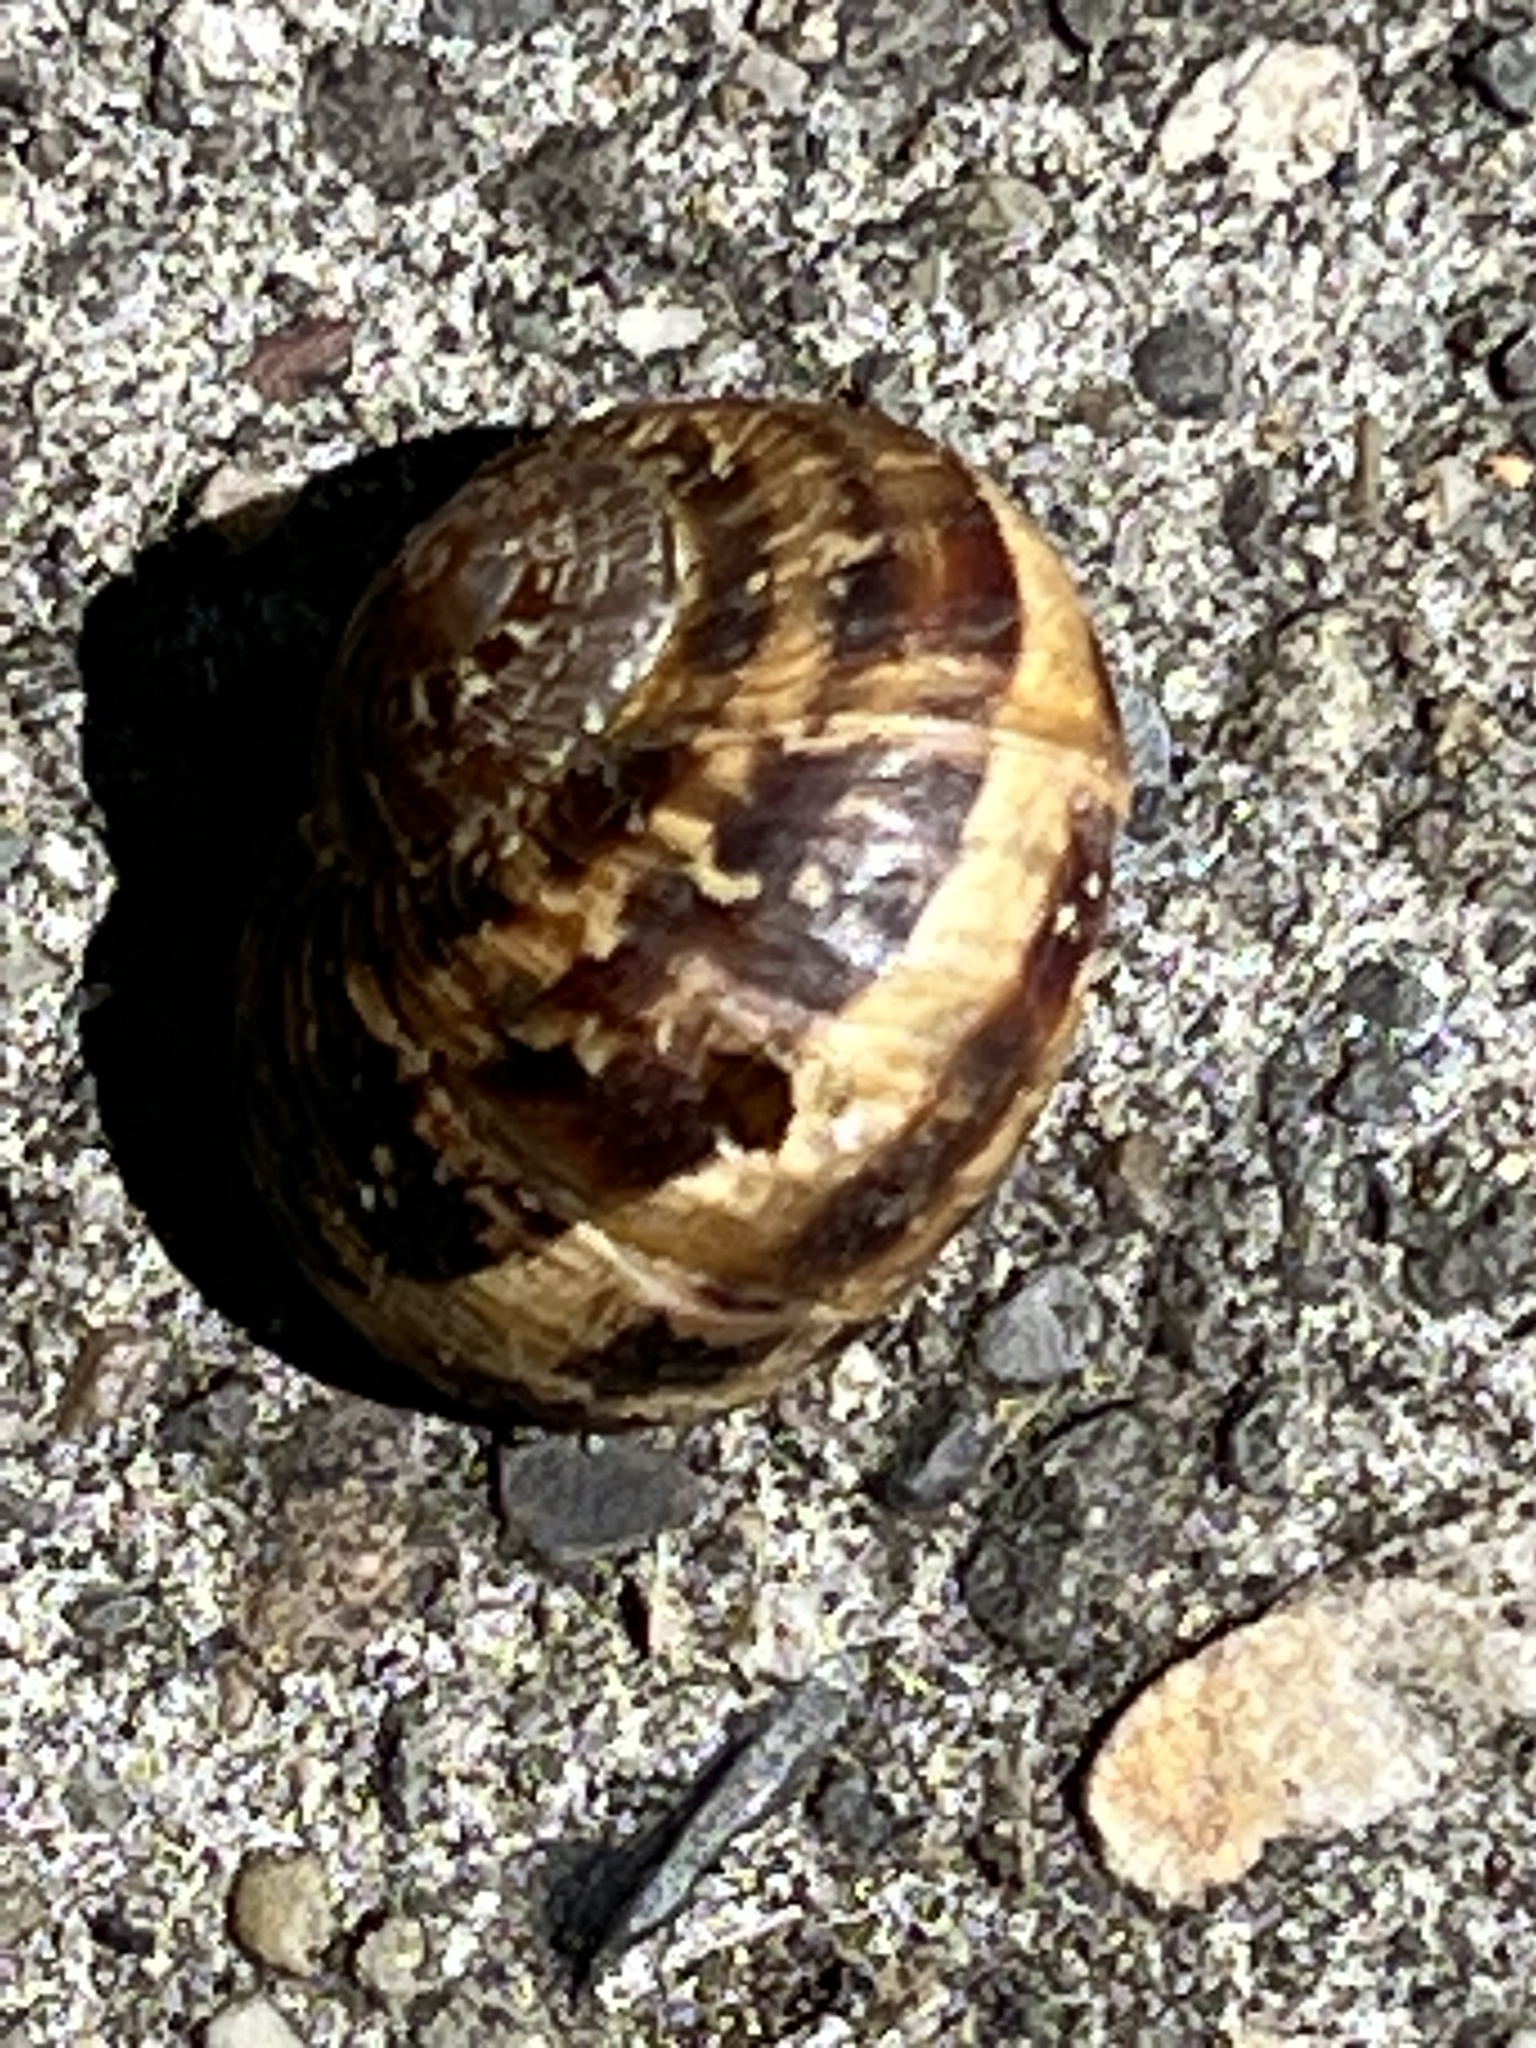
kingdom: Animalia
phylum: Mollusca
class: Gastropoda
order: Stylommatophora
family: Helicidae
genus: Cornu
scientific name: Cornu aspersum
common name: Brown garden snail
